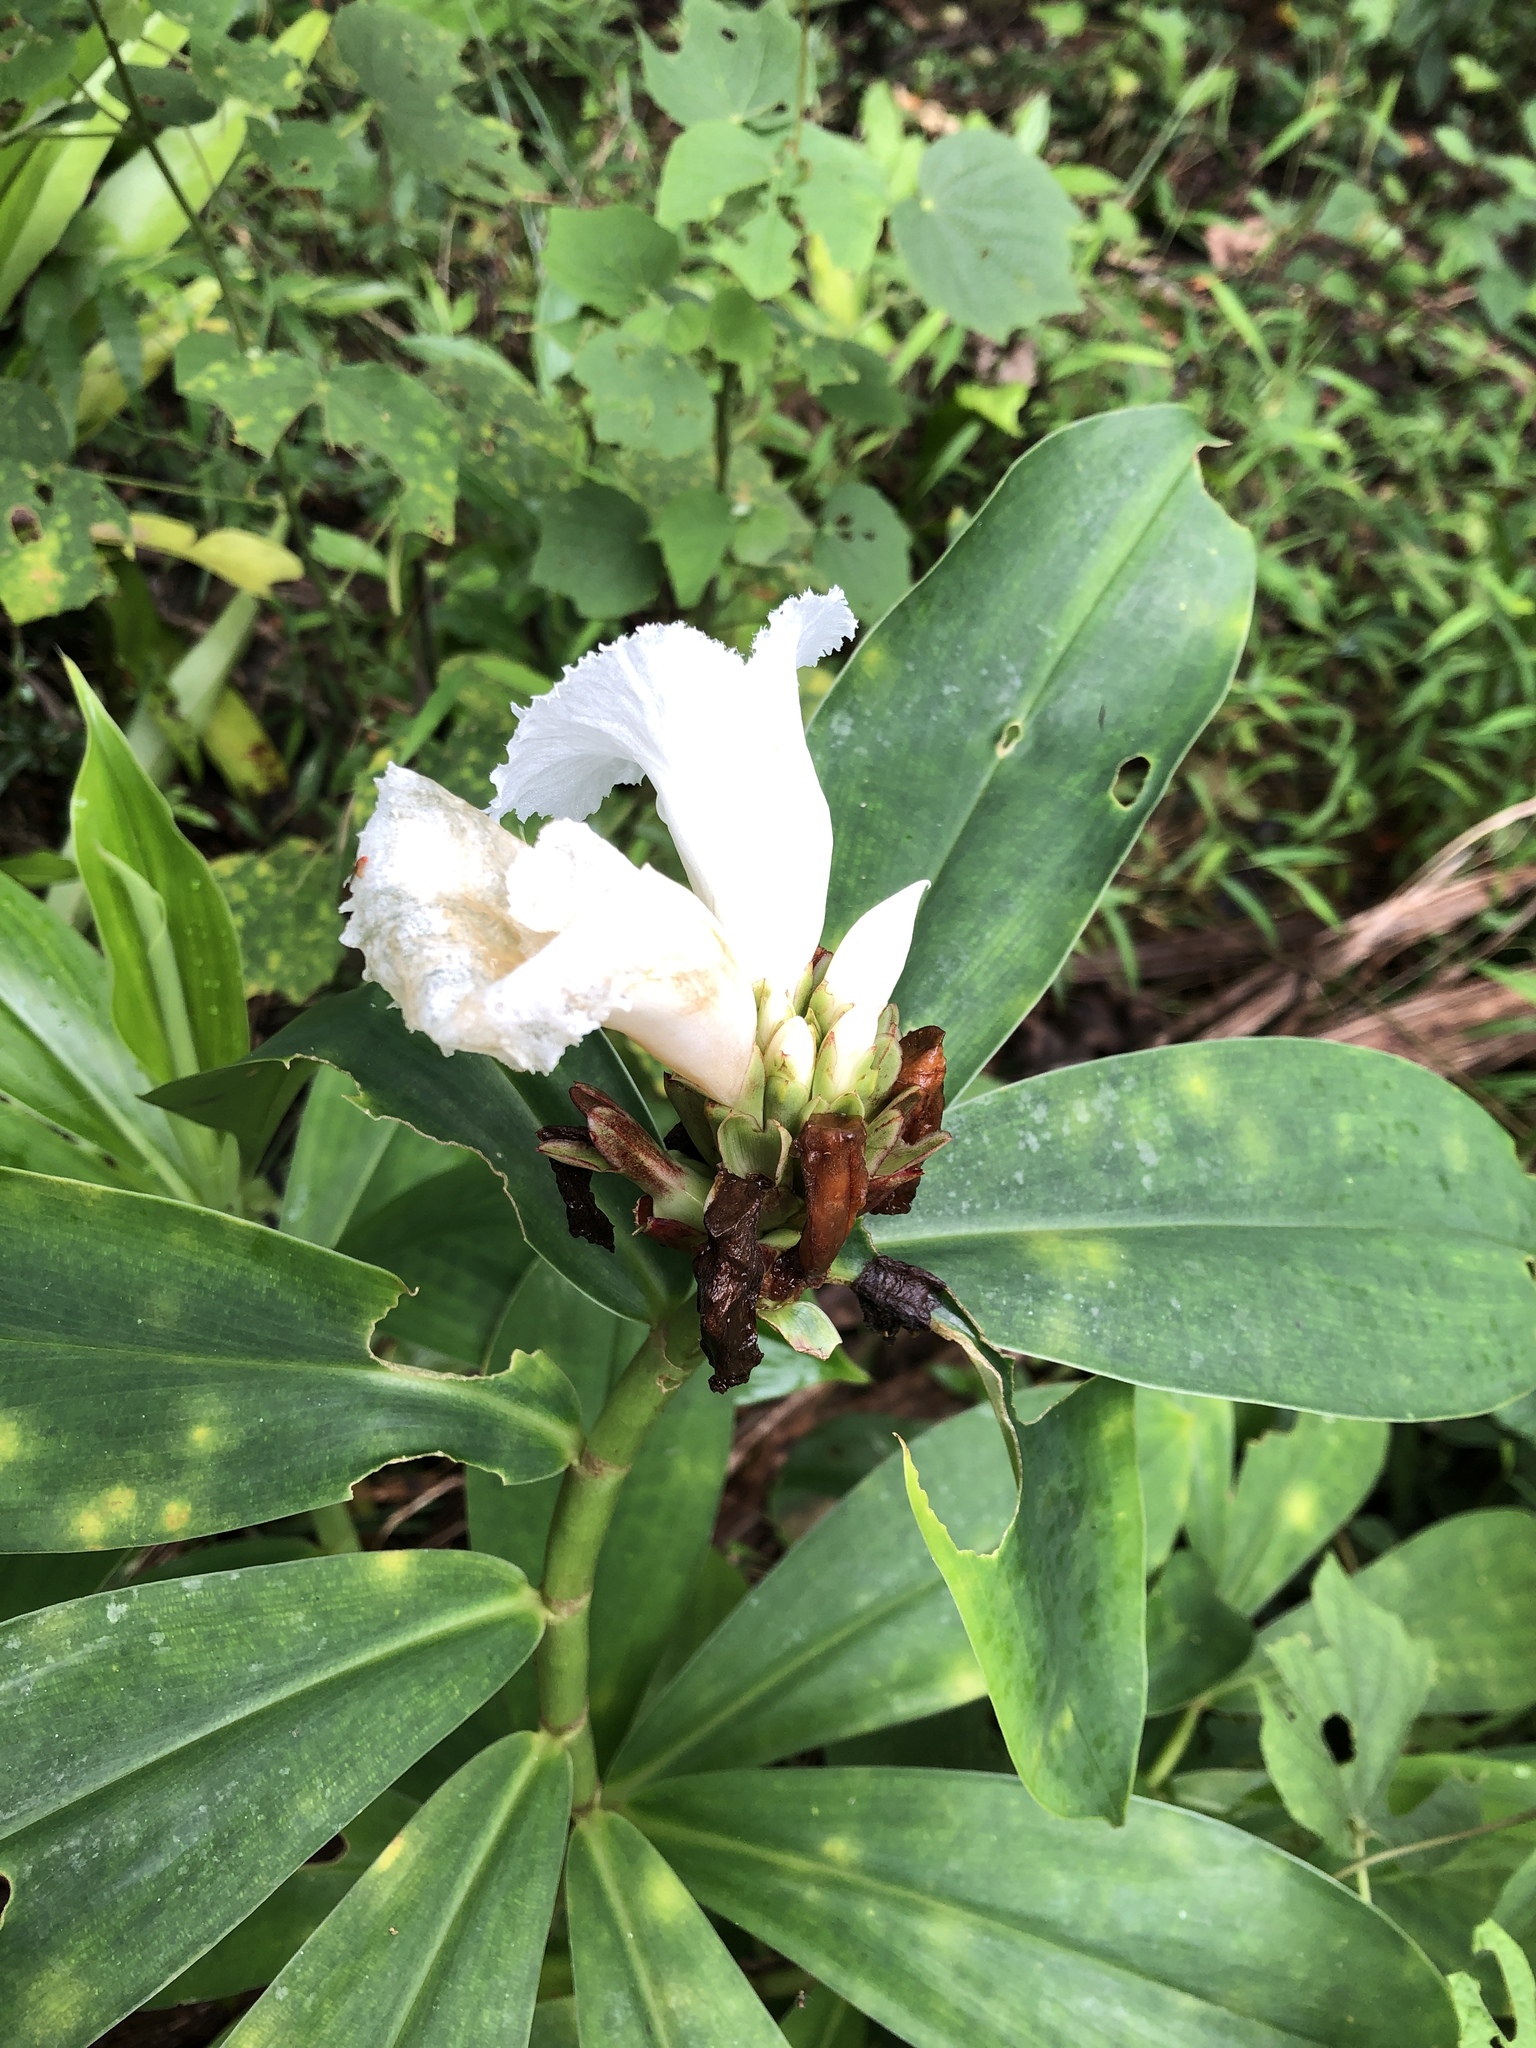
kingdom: Plantae
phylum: Tracheophyta
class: Liliopsida
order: Zingiberales
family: Costaceae
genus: Hellenia
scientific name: Hellenia speciosa
